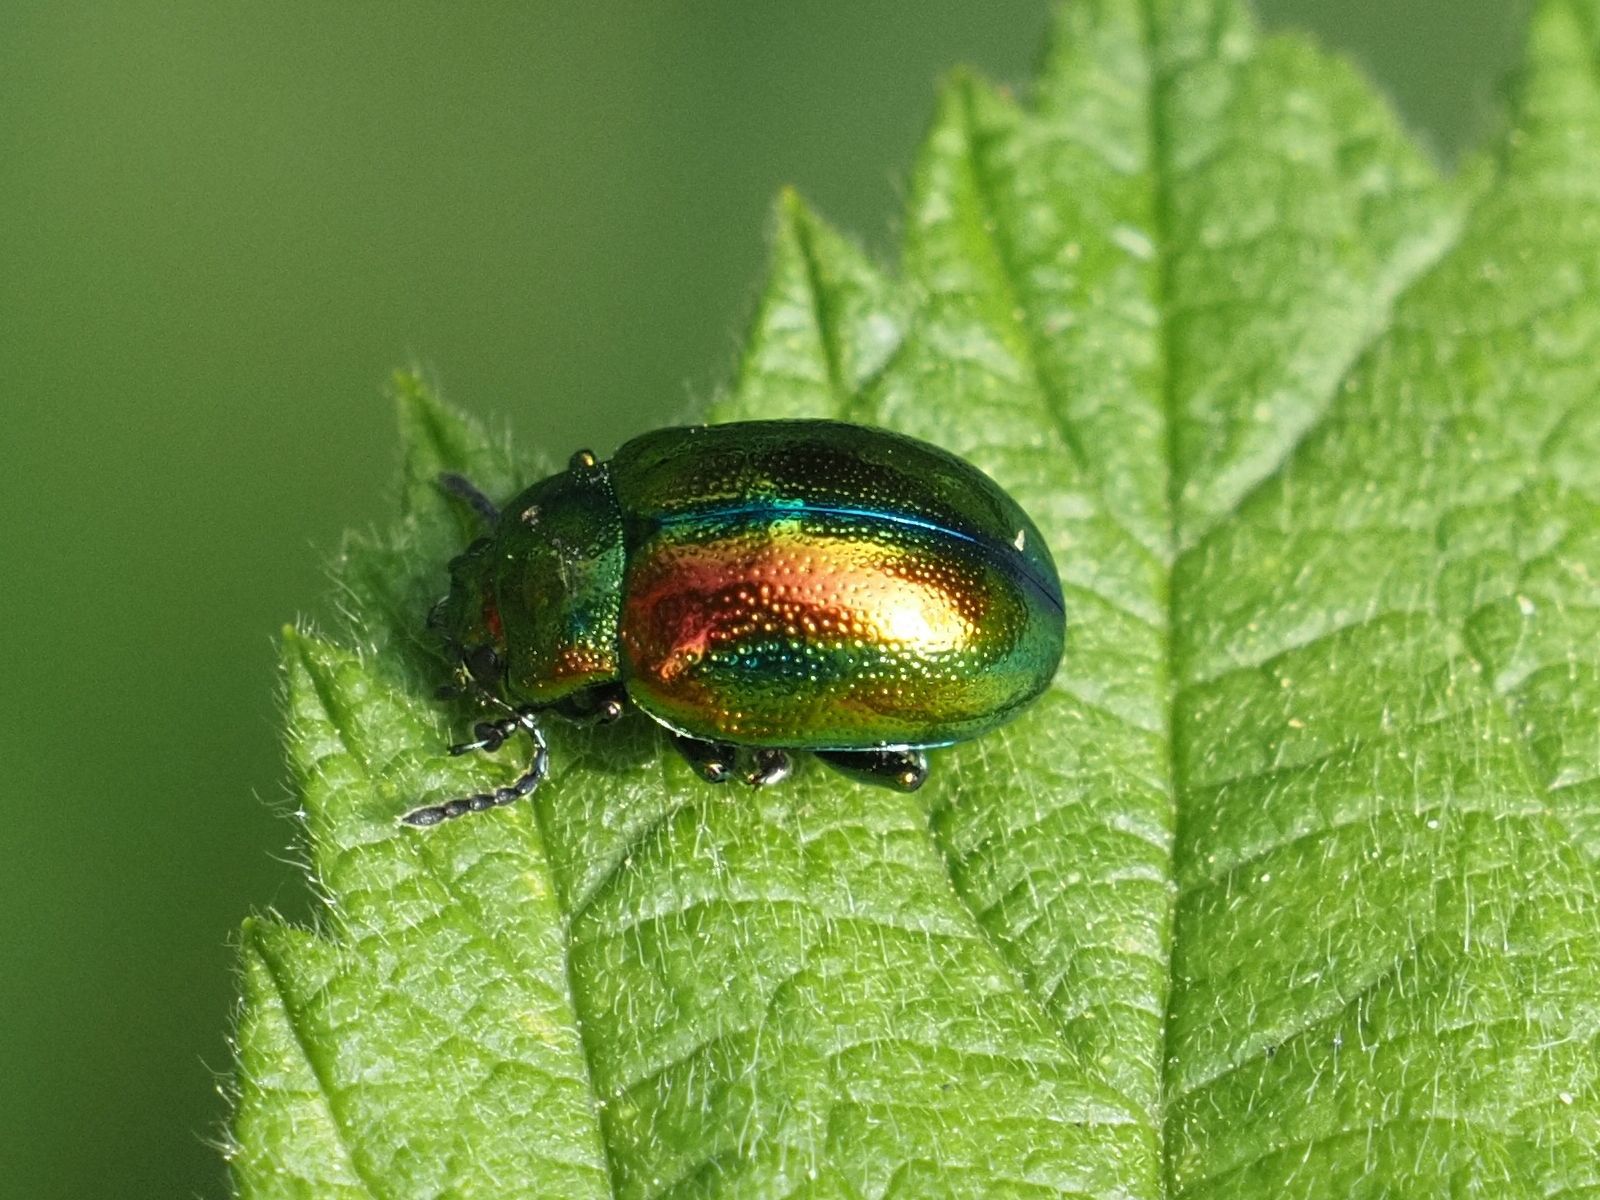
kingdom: Animalia
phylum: Arthropoda
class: Insecta
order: Coleoptera
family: Chrysomelidae
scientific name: Chrysomelidae
